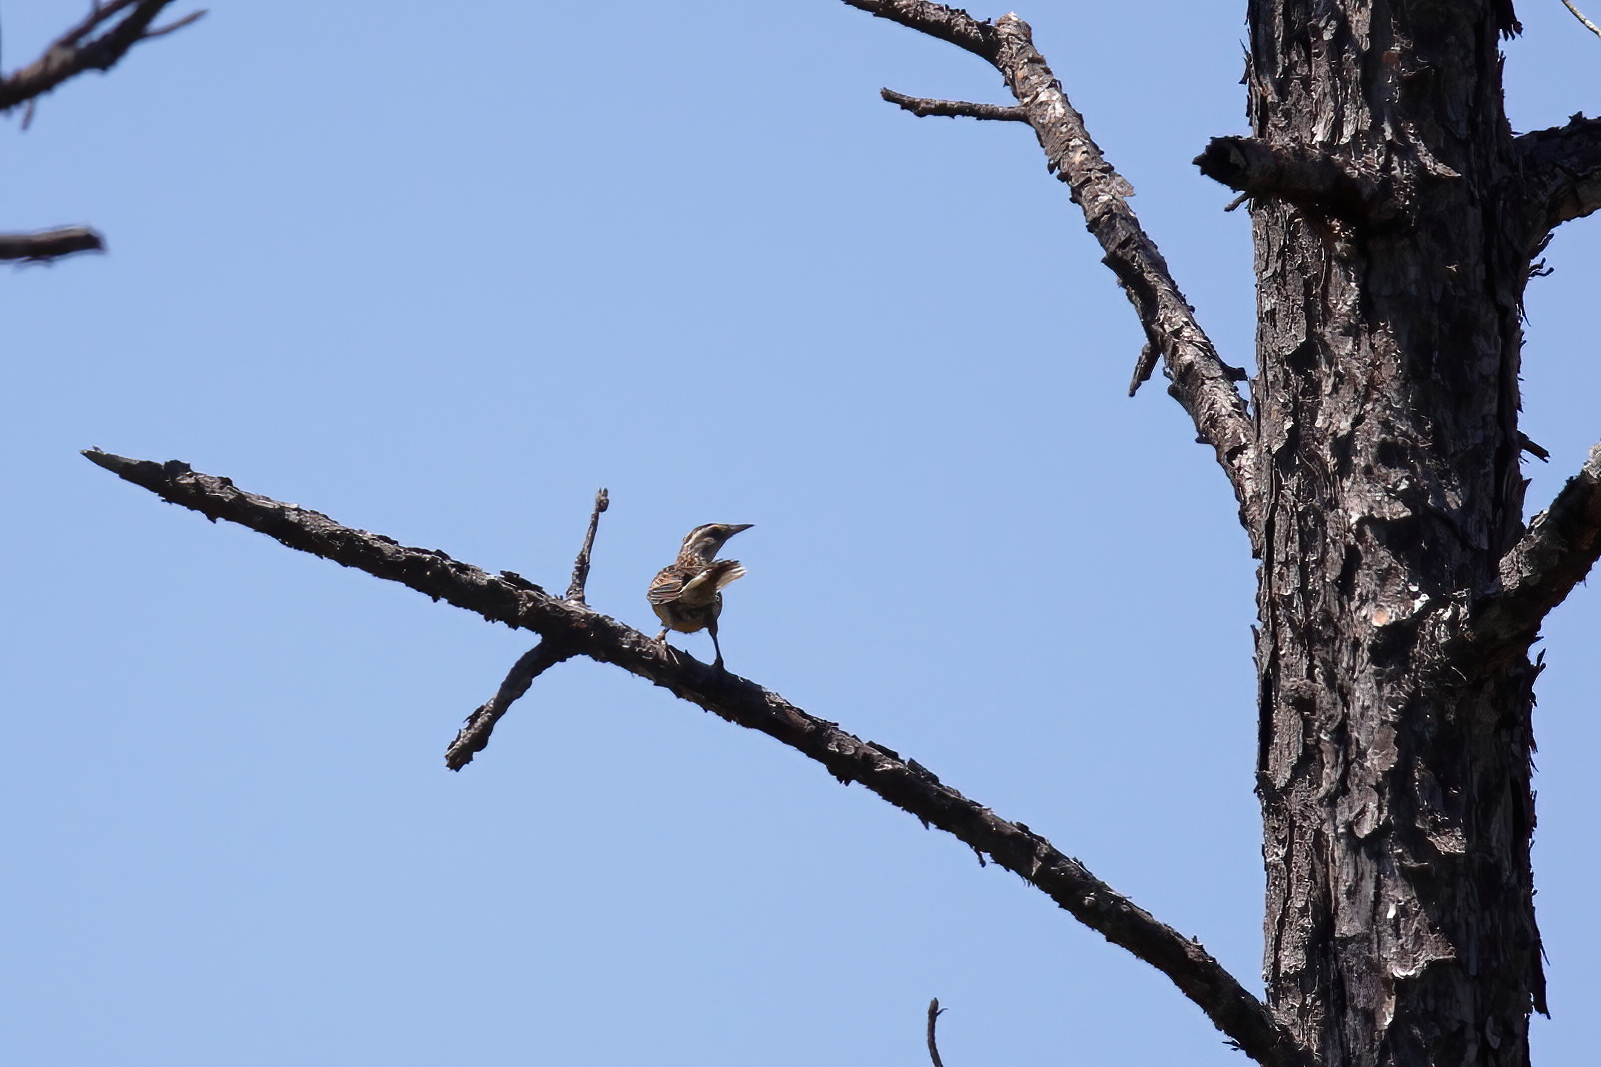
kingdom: Animalia
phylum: Chordata
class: Aves
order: Passeriformes
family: Icteridae
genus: Sturnella
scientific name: Sturnella magna
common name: Eastern meadowlark
